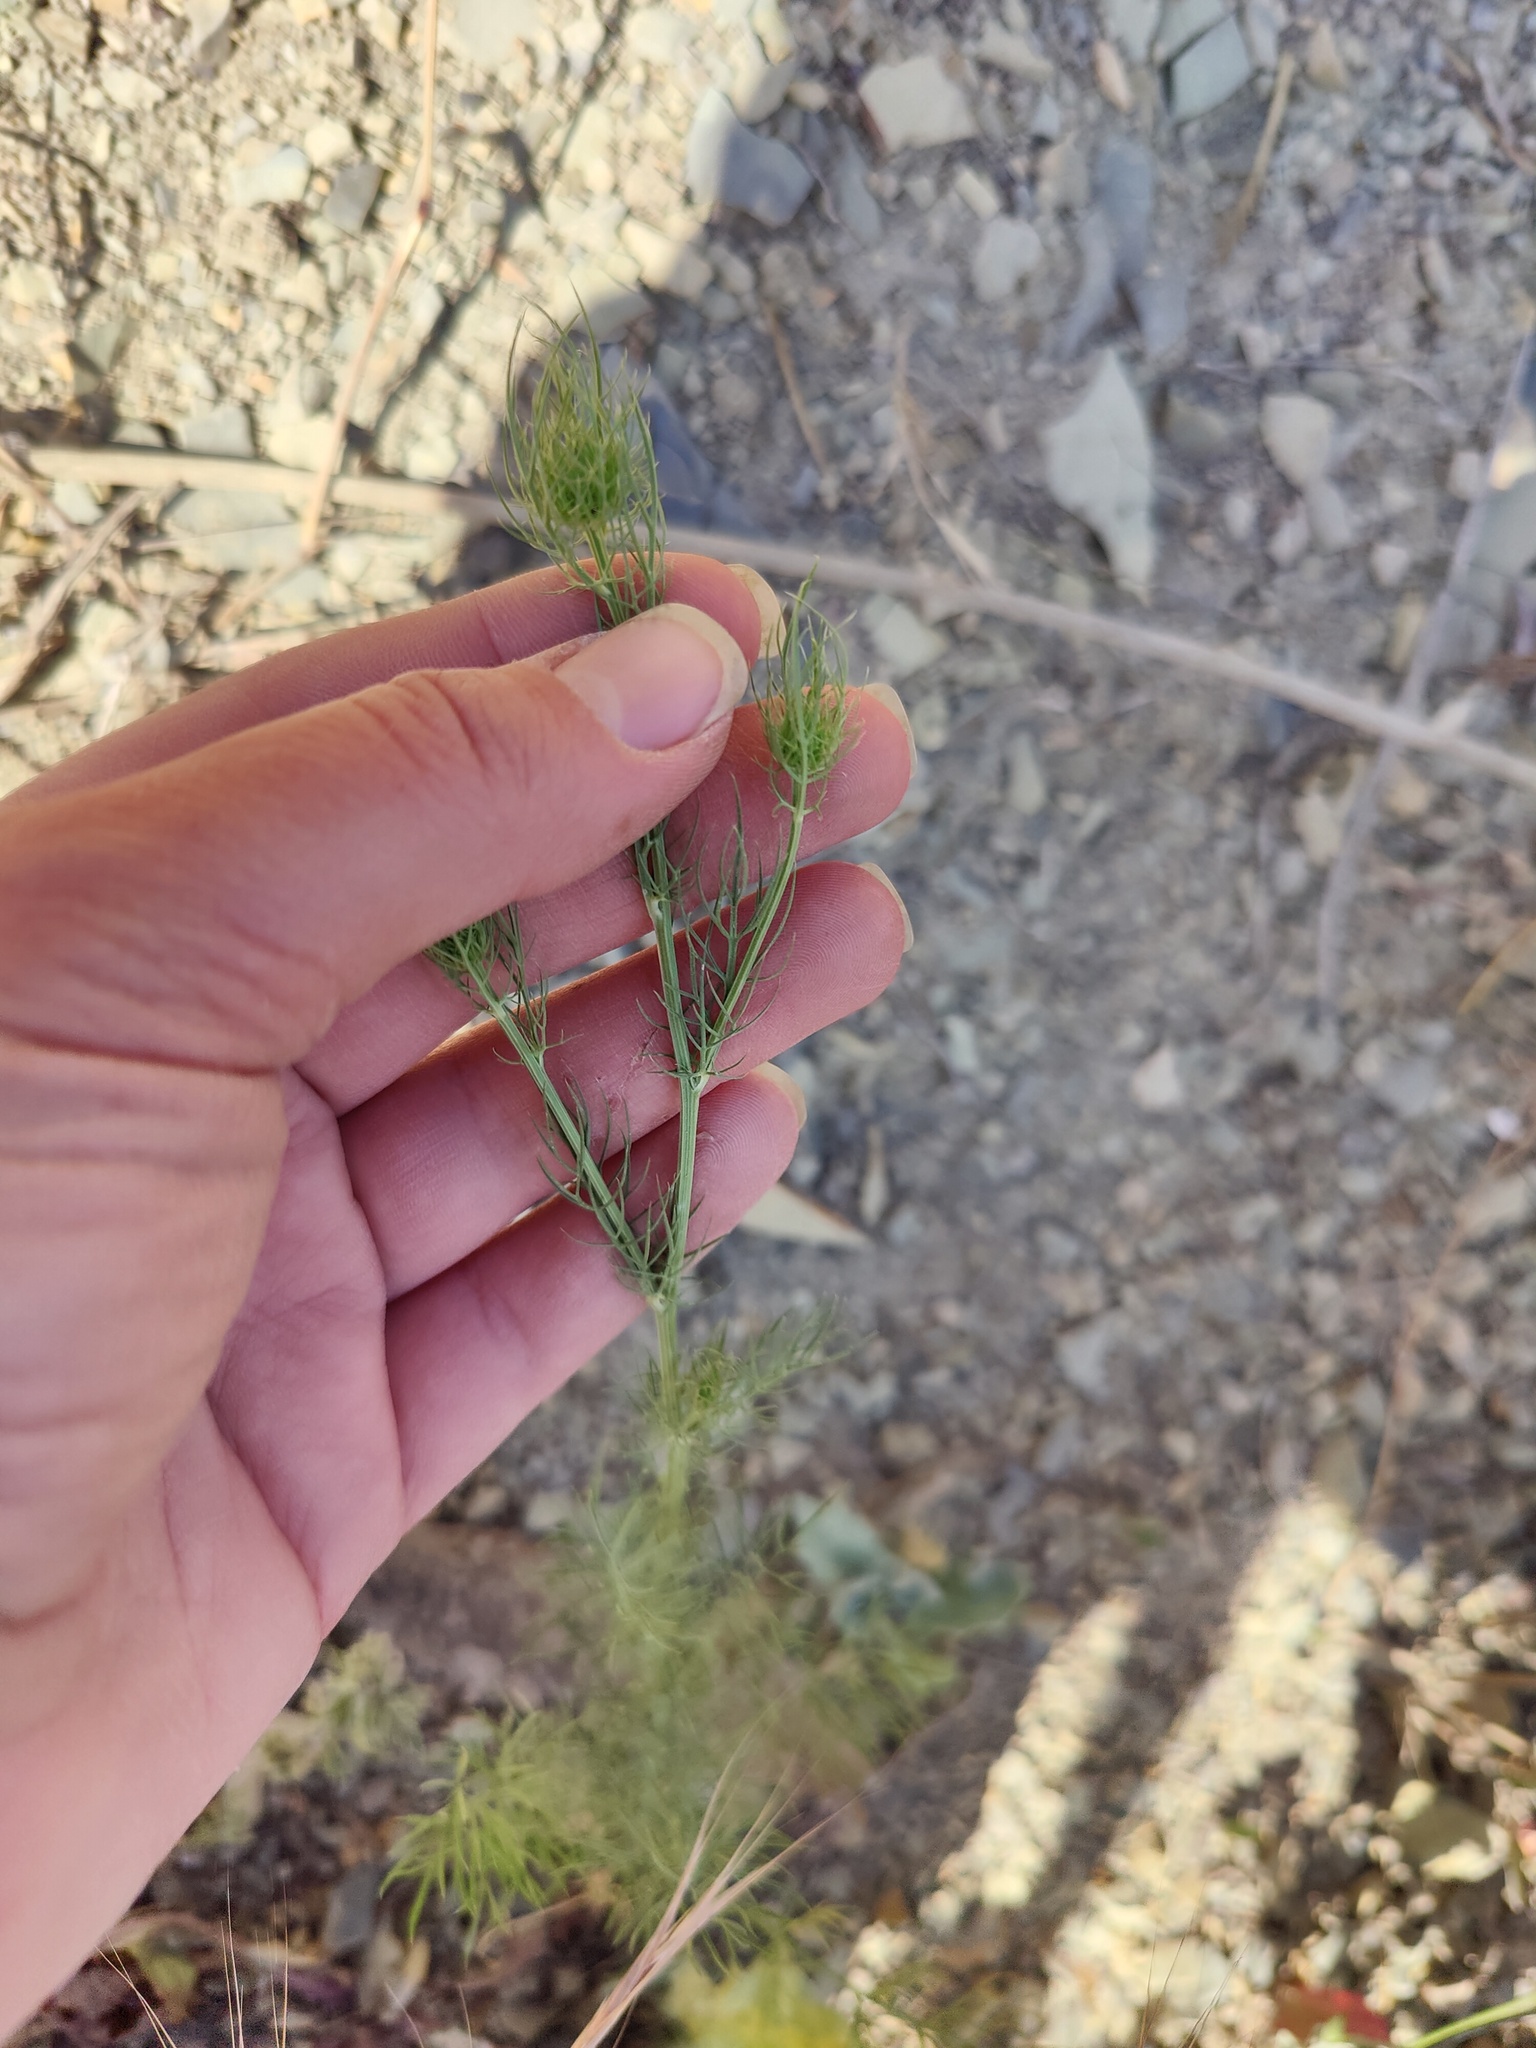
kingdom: Plantae
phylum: Tracheophyta
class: Magnoliopsida
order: Asterales
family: Asteraceae
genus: Matricaria
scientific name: Matricaria chamomilla
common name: Scented mayweed
